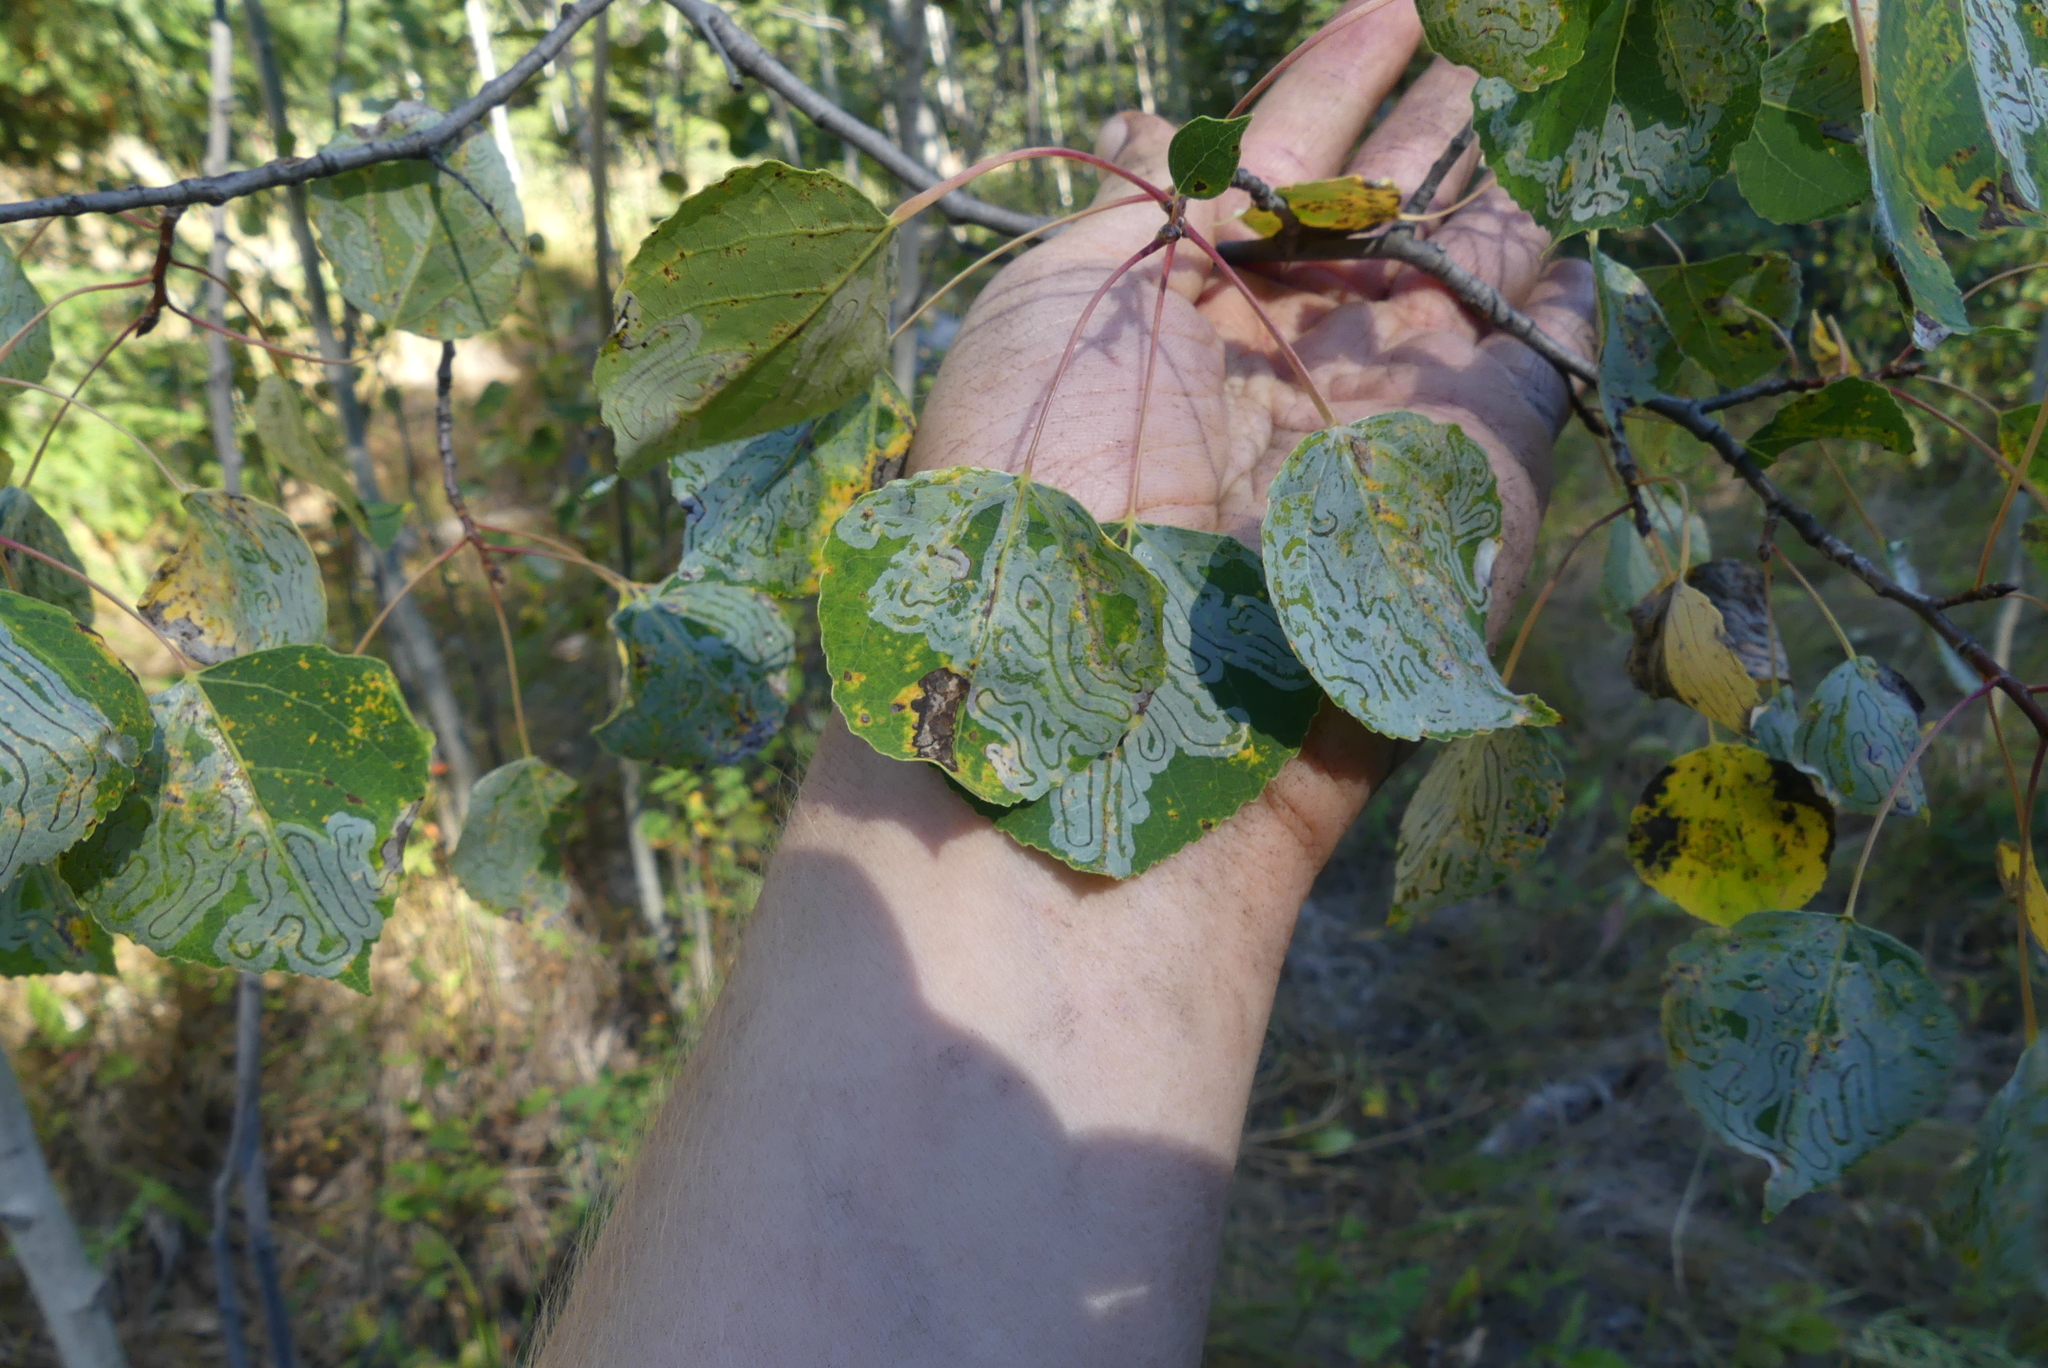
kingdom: Animalia
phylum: Arthropoda
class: Insecta
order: Lepidoptera
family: Gracillariidae
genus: Phyllocnistis
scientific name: Phyllocnistis populiella
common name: Aspen serpentine leafminer moth
